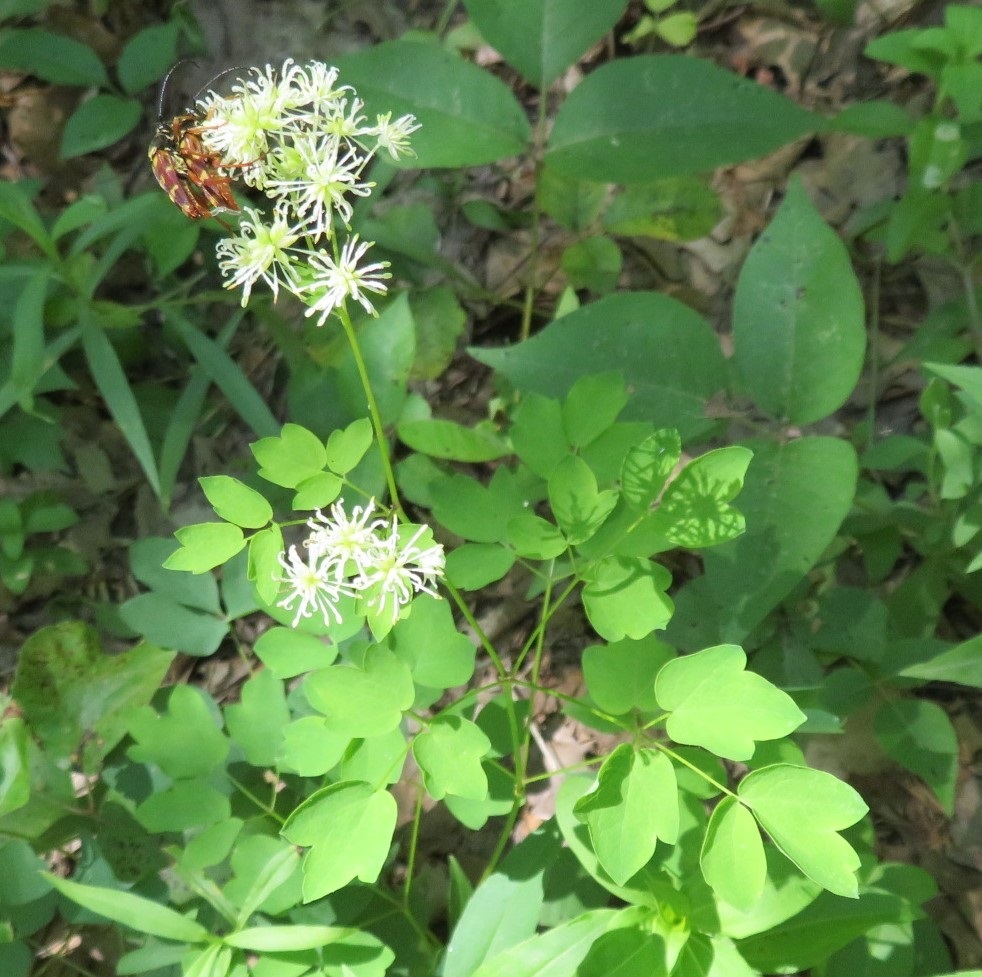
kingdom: Plantae
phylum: Tracheophyta
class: Magnoliopsida
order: Ranunculales
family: Ranunculaceae
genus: Thalictrum
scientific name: Thalictrum pubescens
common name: King-of-the-meadow
